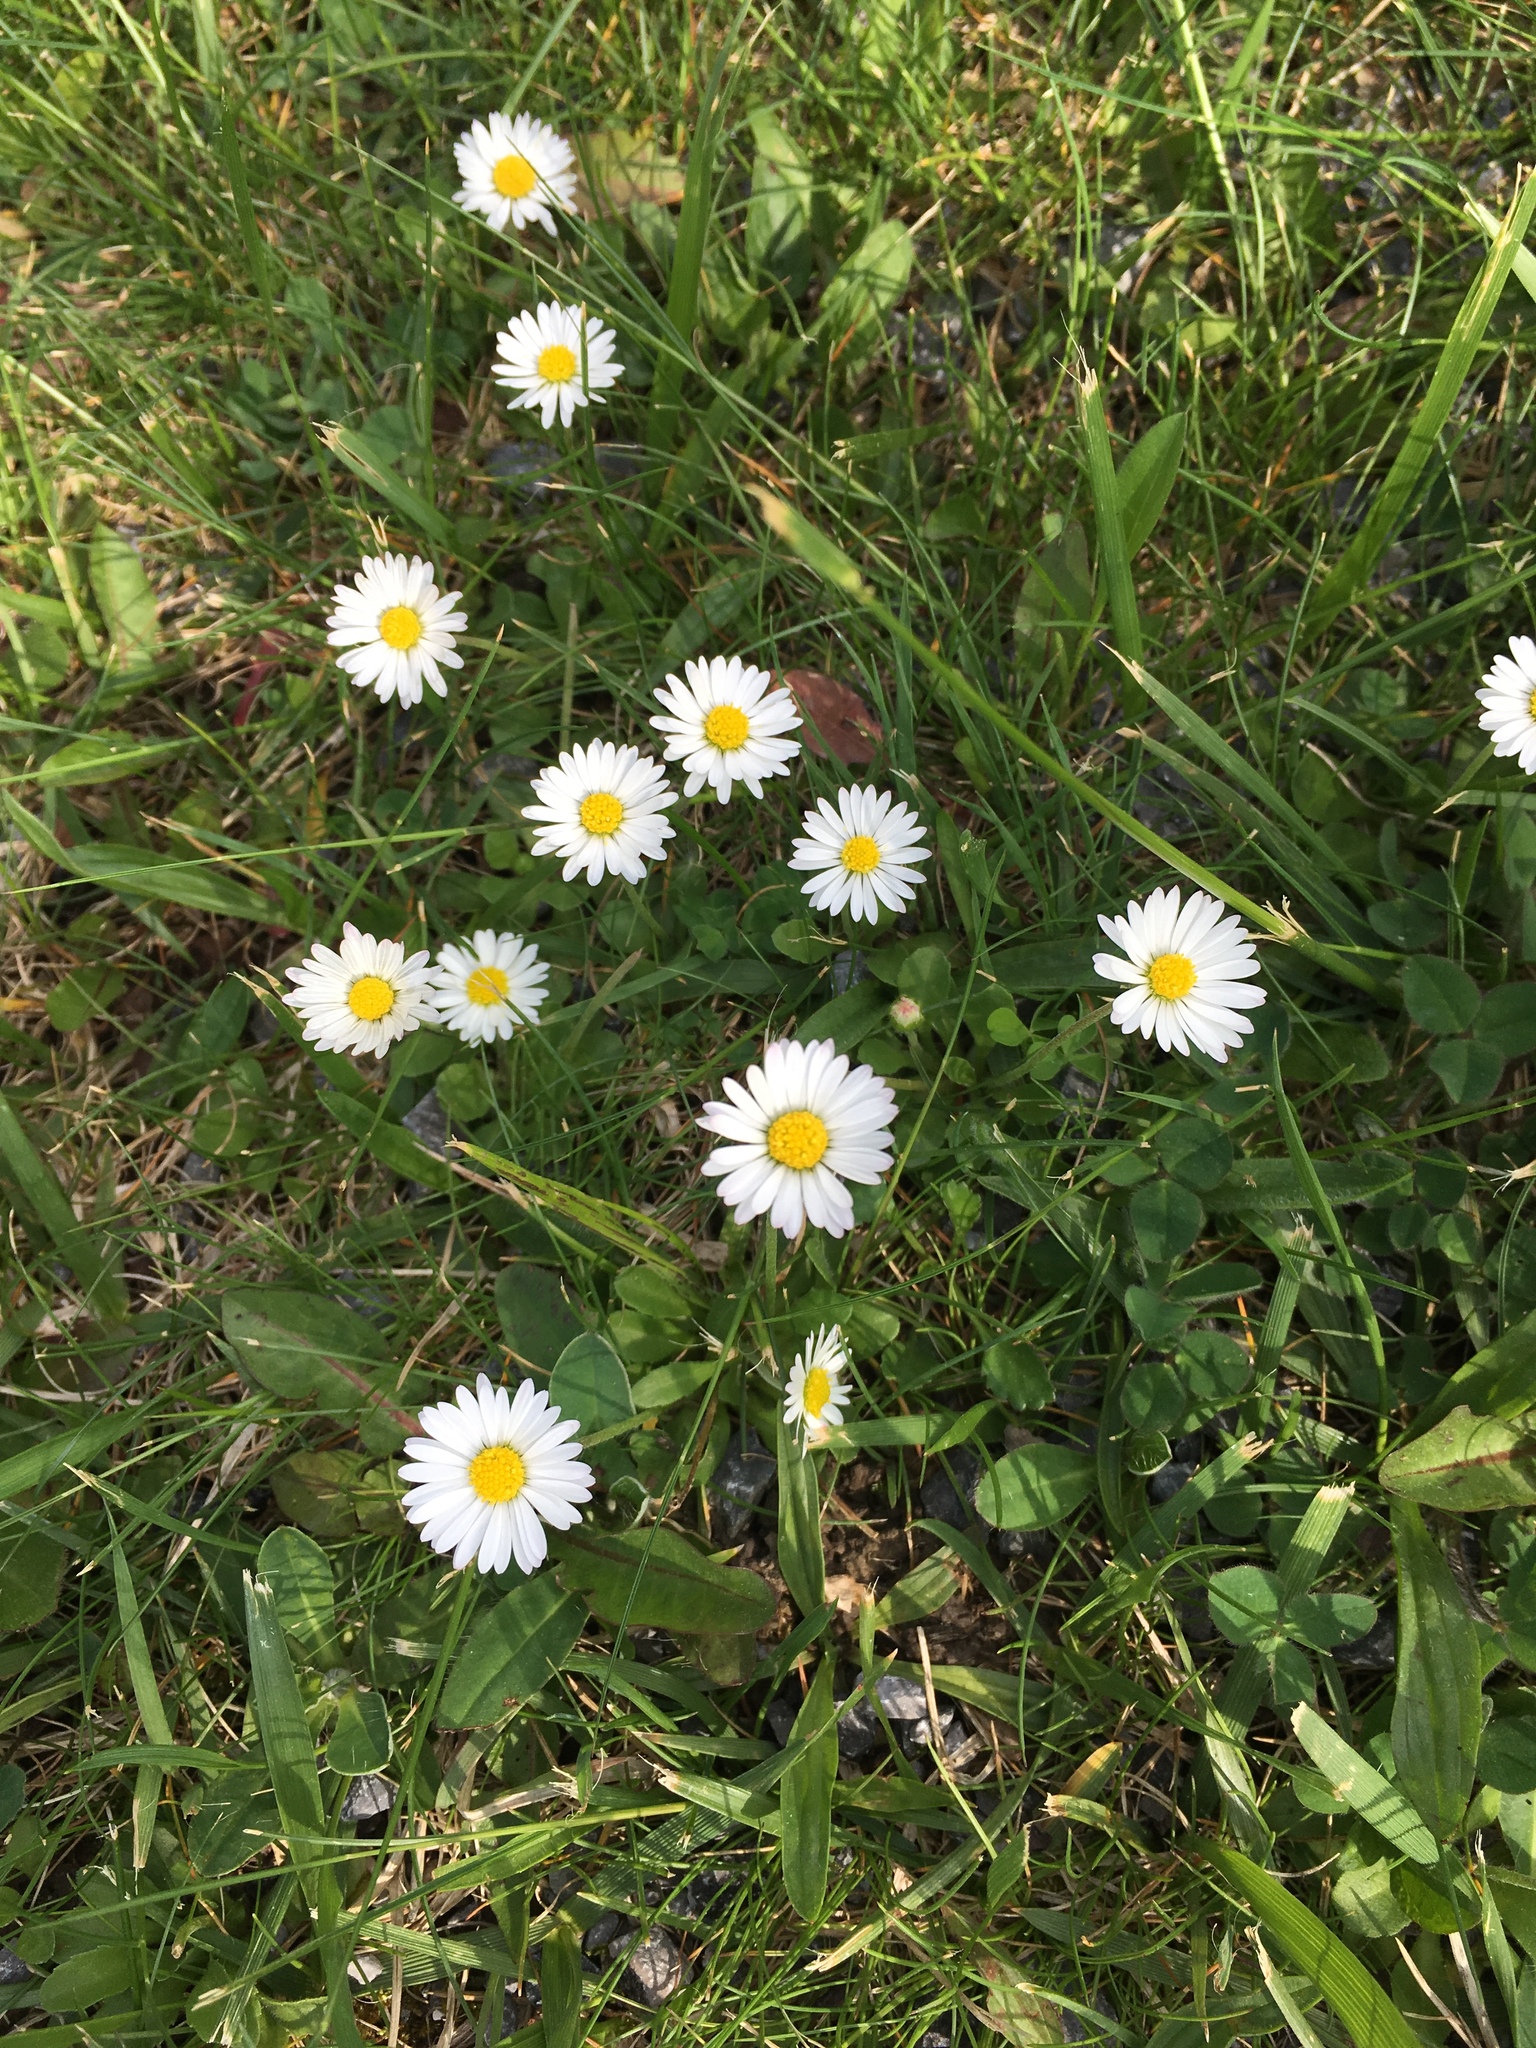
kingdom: Plantae
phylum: Tracheophyta
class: Magnoliopsida
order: Asterales
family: Asteraceae
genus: Bellis
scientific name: Bellis perennis
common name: Lawndaisy
